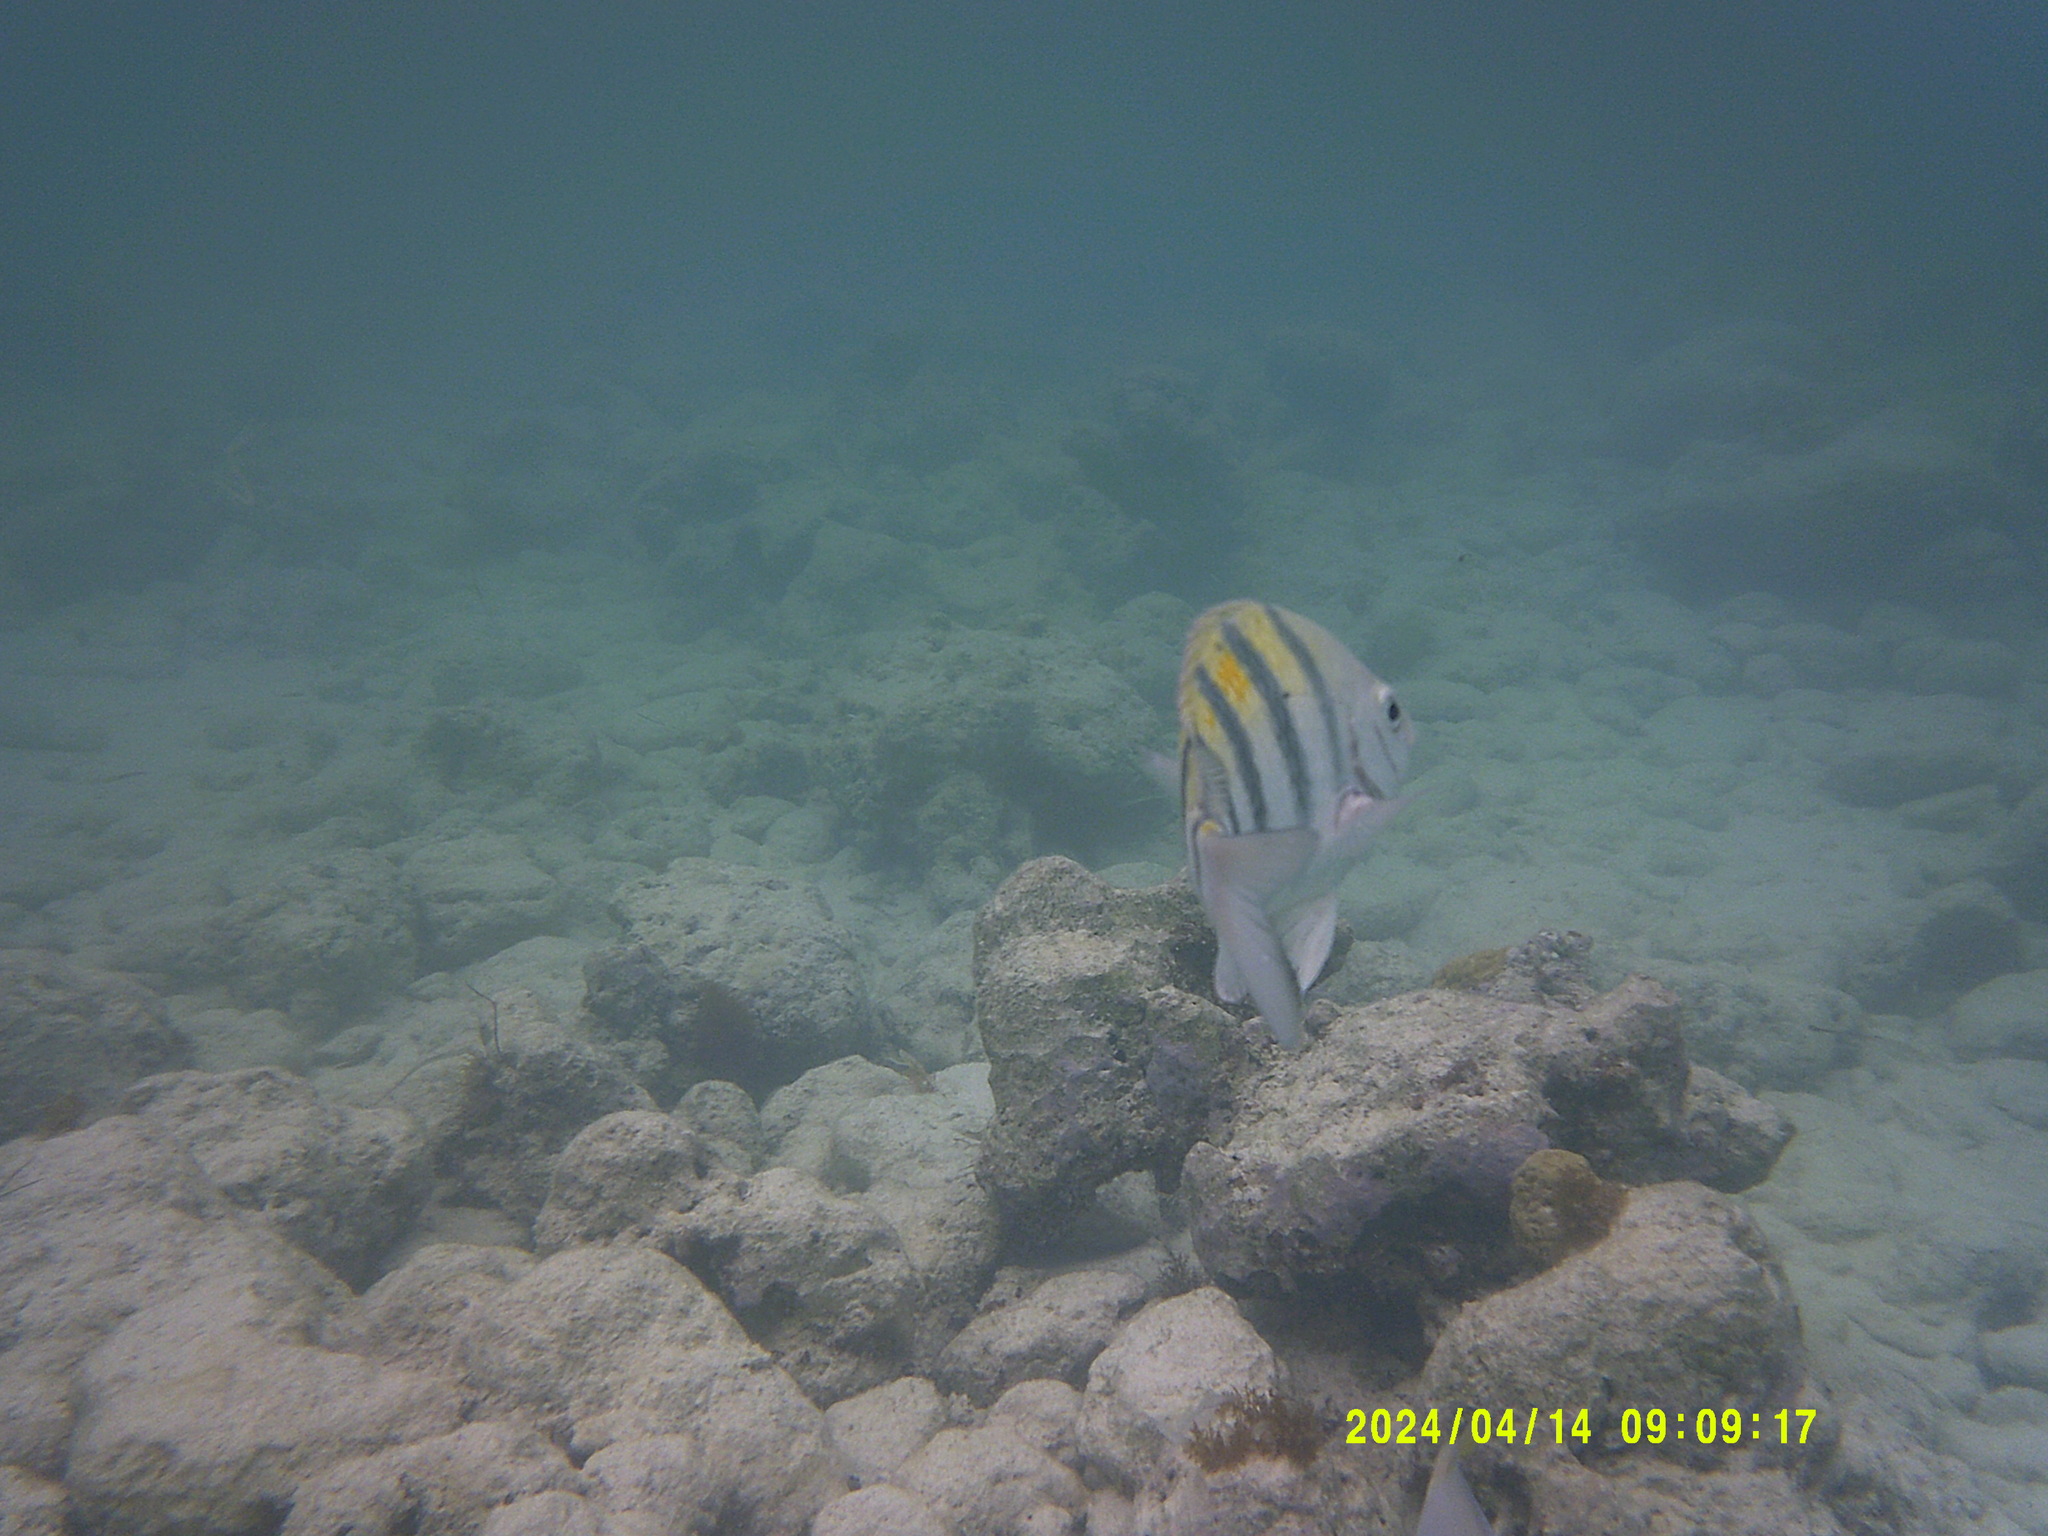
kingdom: Animalia
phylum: Chordata
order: Perciformes
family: Pomacentridae
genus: Abudefduf
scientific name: Abudefduf saxatilis
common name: Sergeant major
